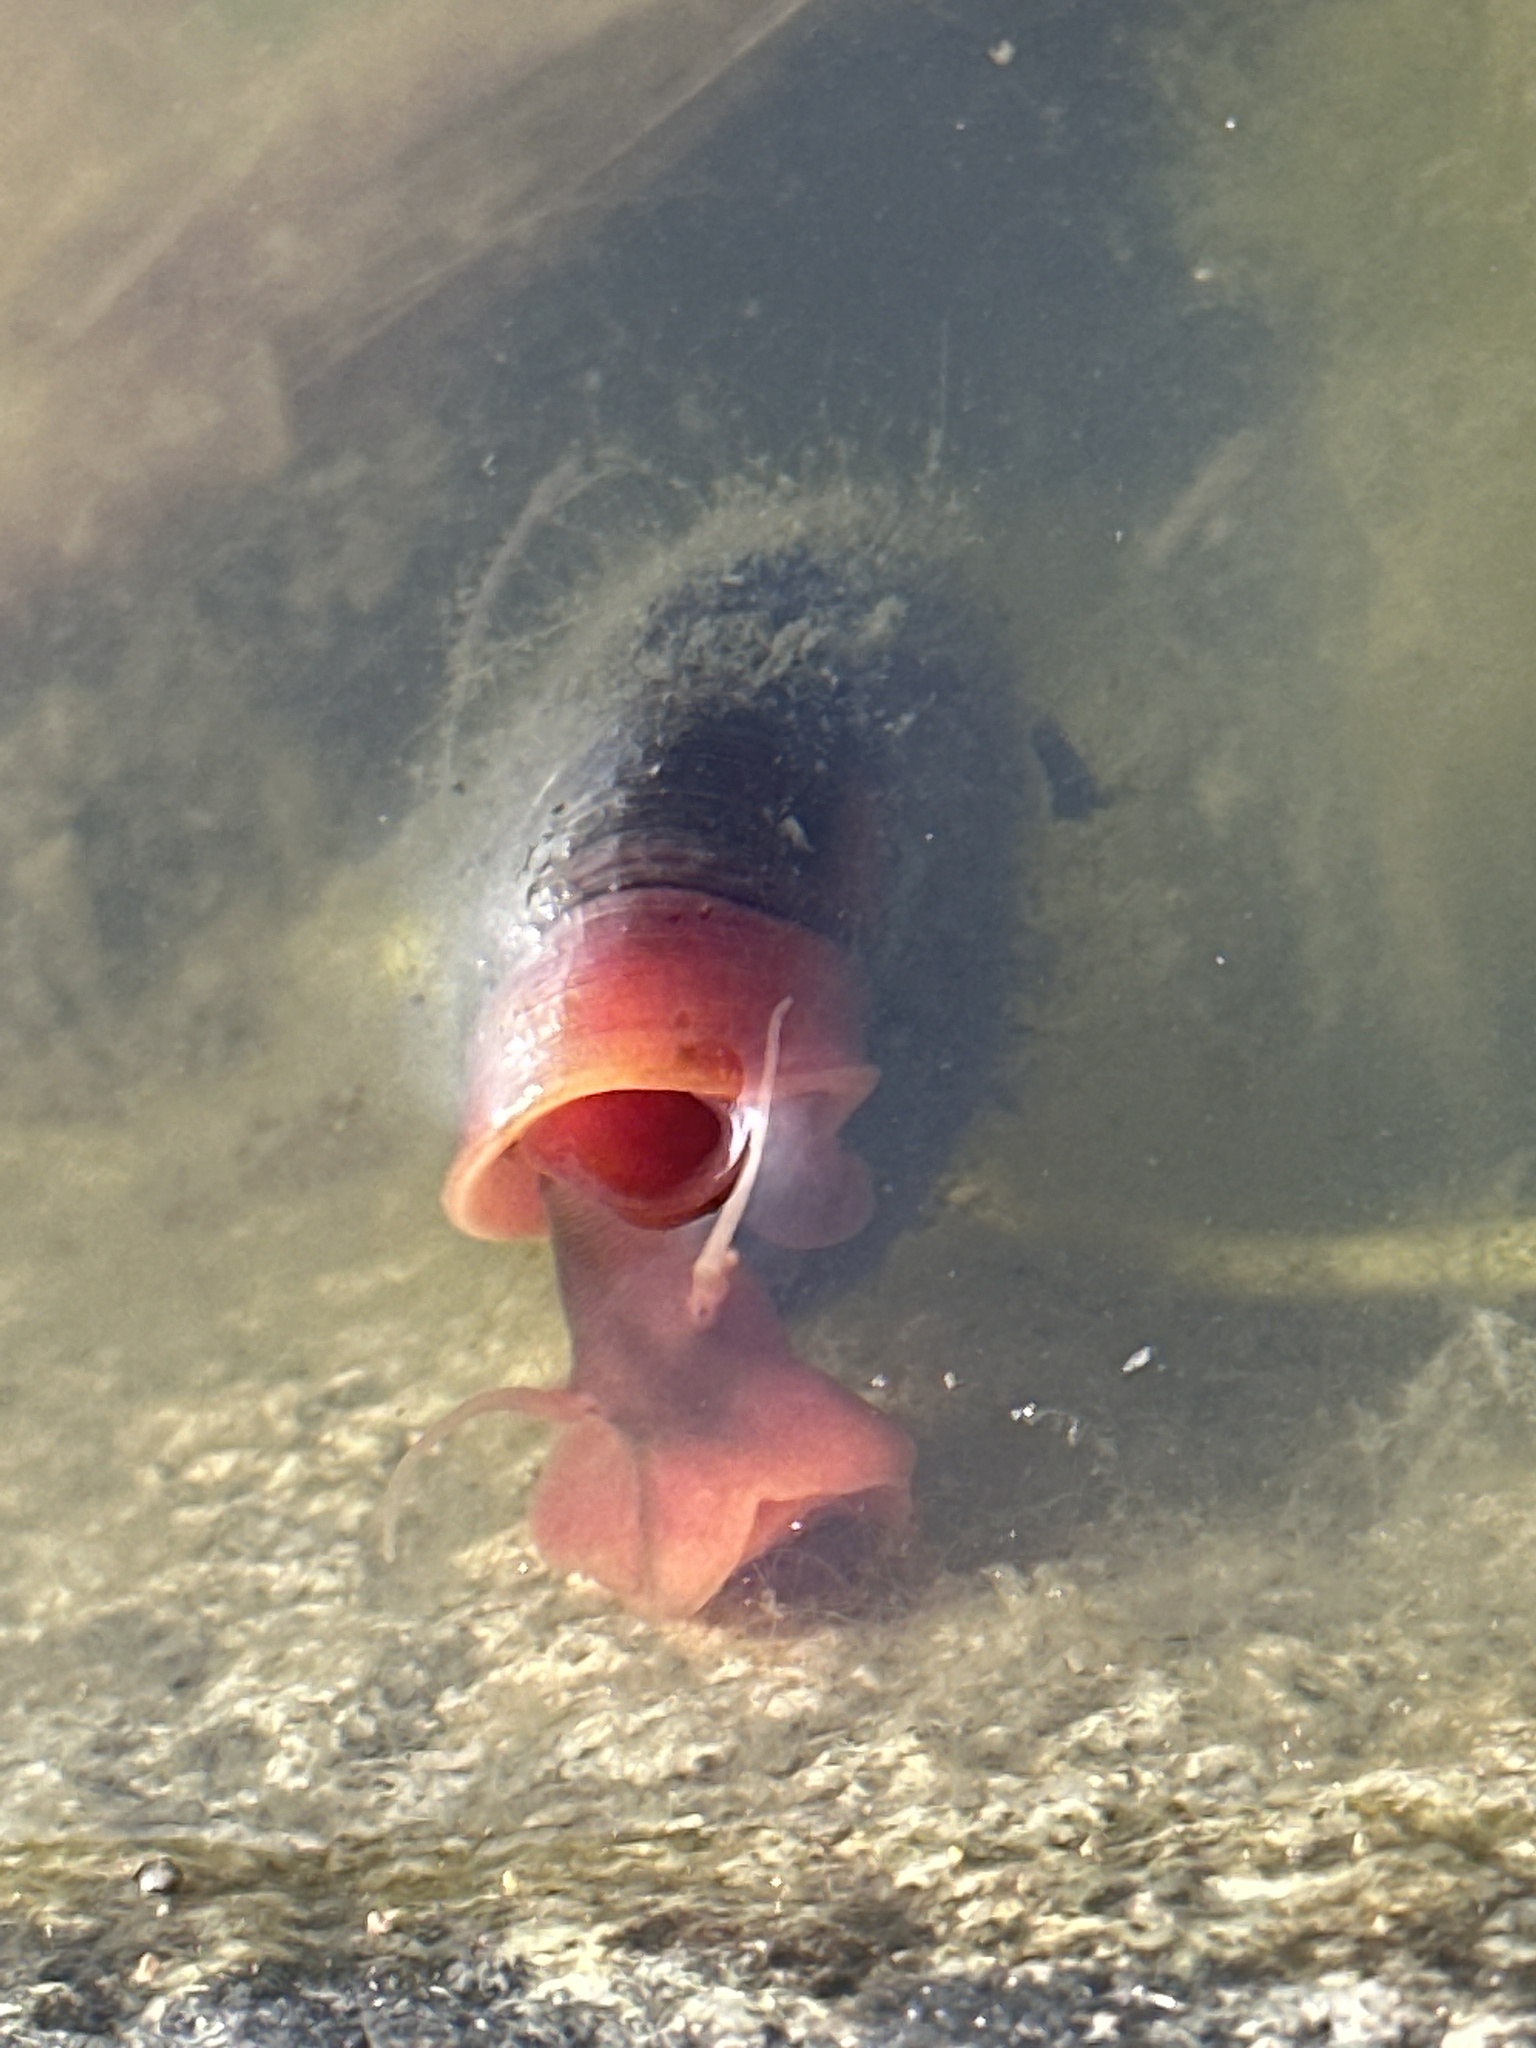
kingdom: Animalia
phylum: Mollusca
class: Gastropoda
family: Planorbidae
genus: Planorbarius
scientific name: Planorbarius corneus
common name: Great ramshorn
